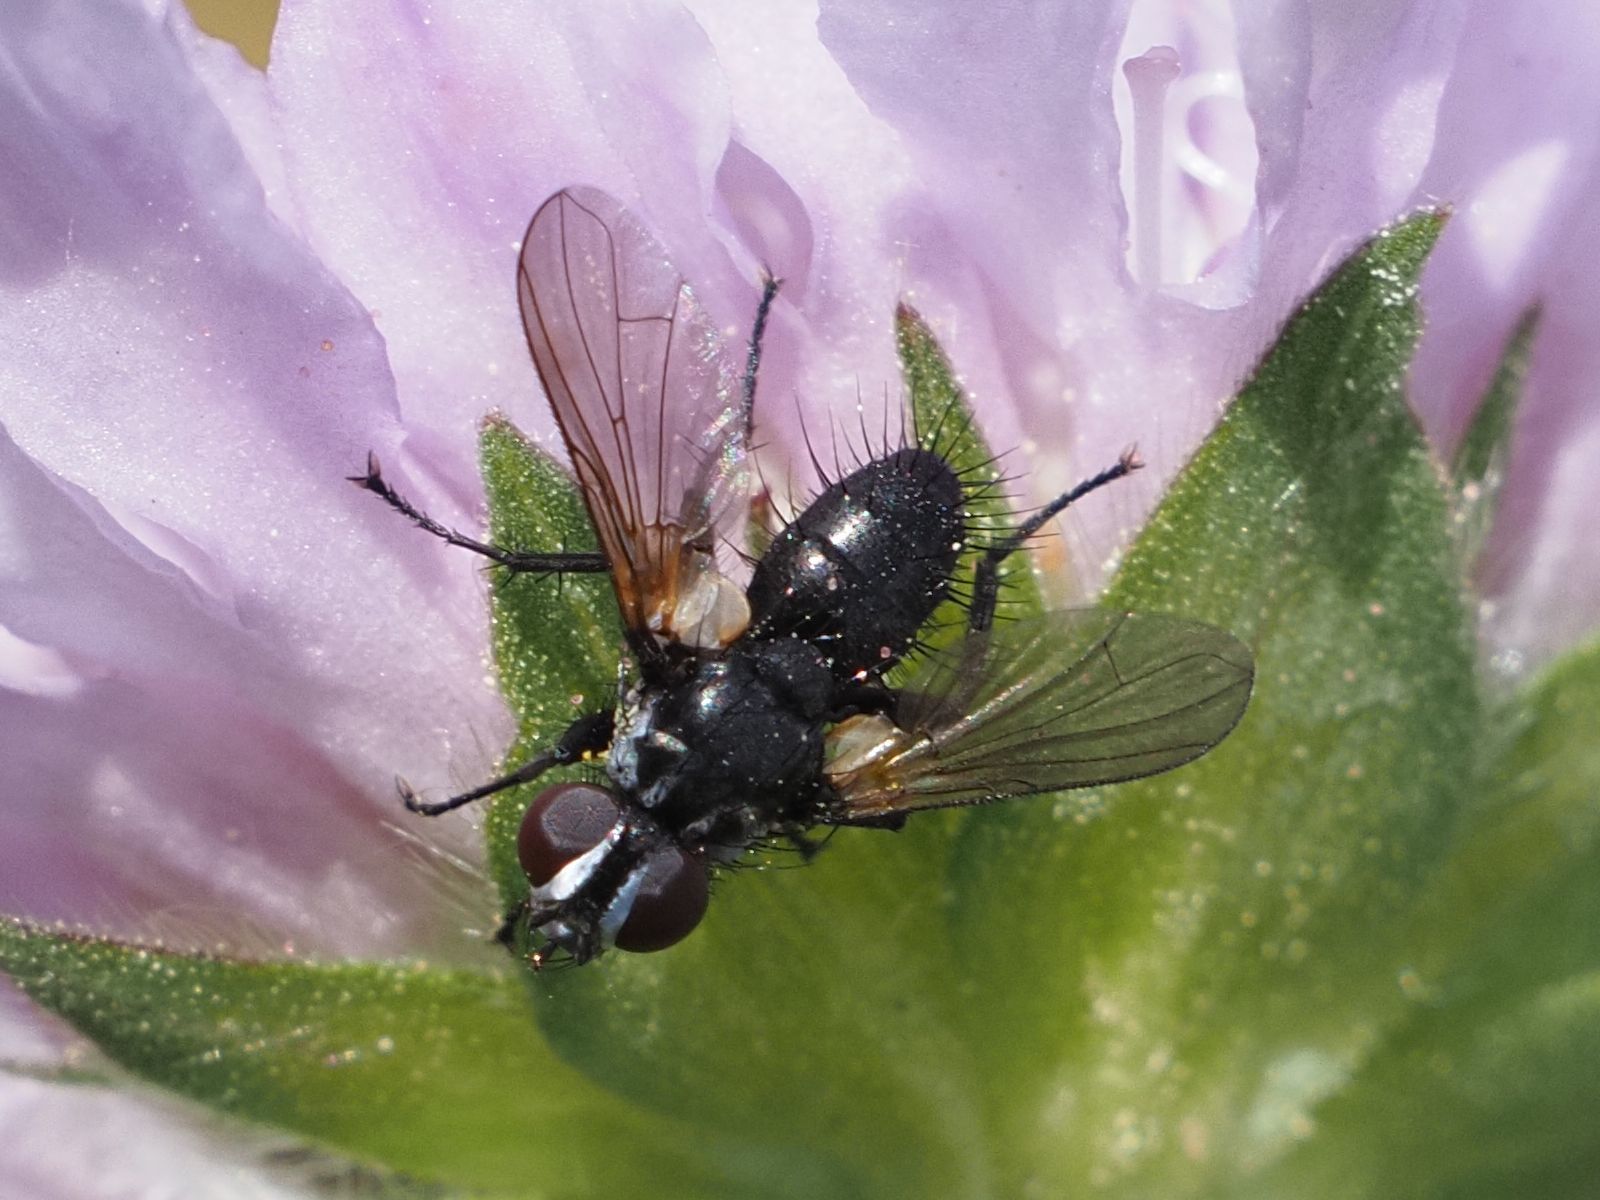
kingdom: Animalia
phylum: Arthropoda
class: Insecta
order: Diptera
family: Tachinidae
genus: Phania
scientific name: Phania funesta
